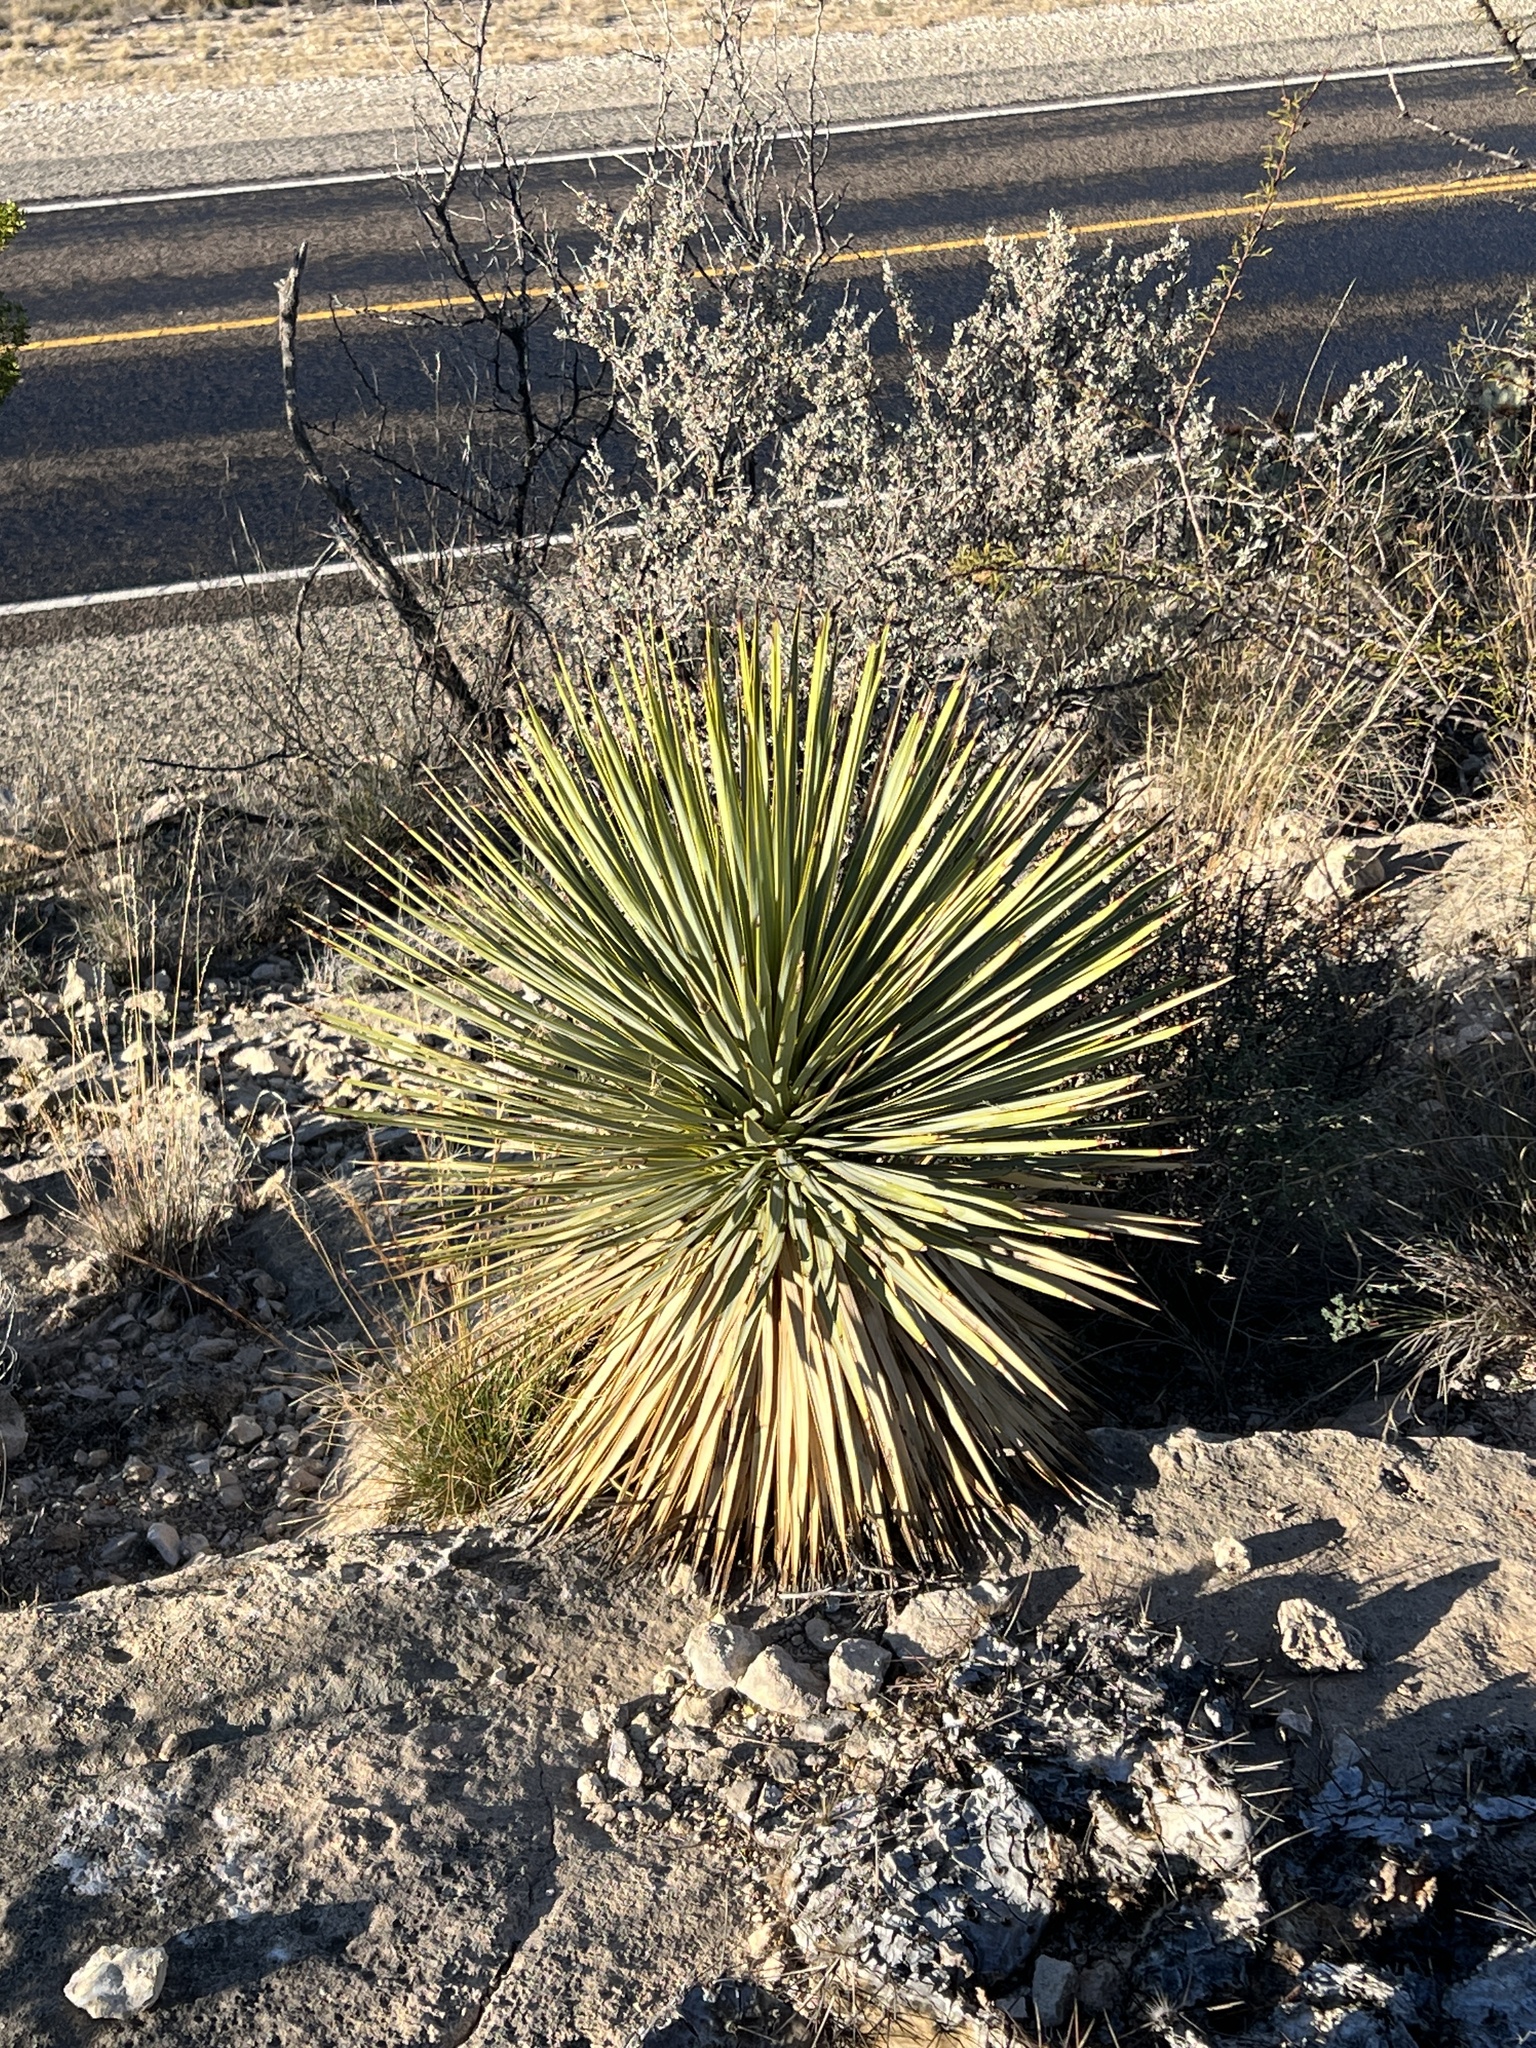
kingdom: Plantae
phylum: Tracheophyta
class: Liliopsida
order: Asparagales
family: Asparagaceae
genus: Yucca
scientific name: Yucca thompsoniana
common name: Trans-pecos yucca
